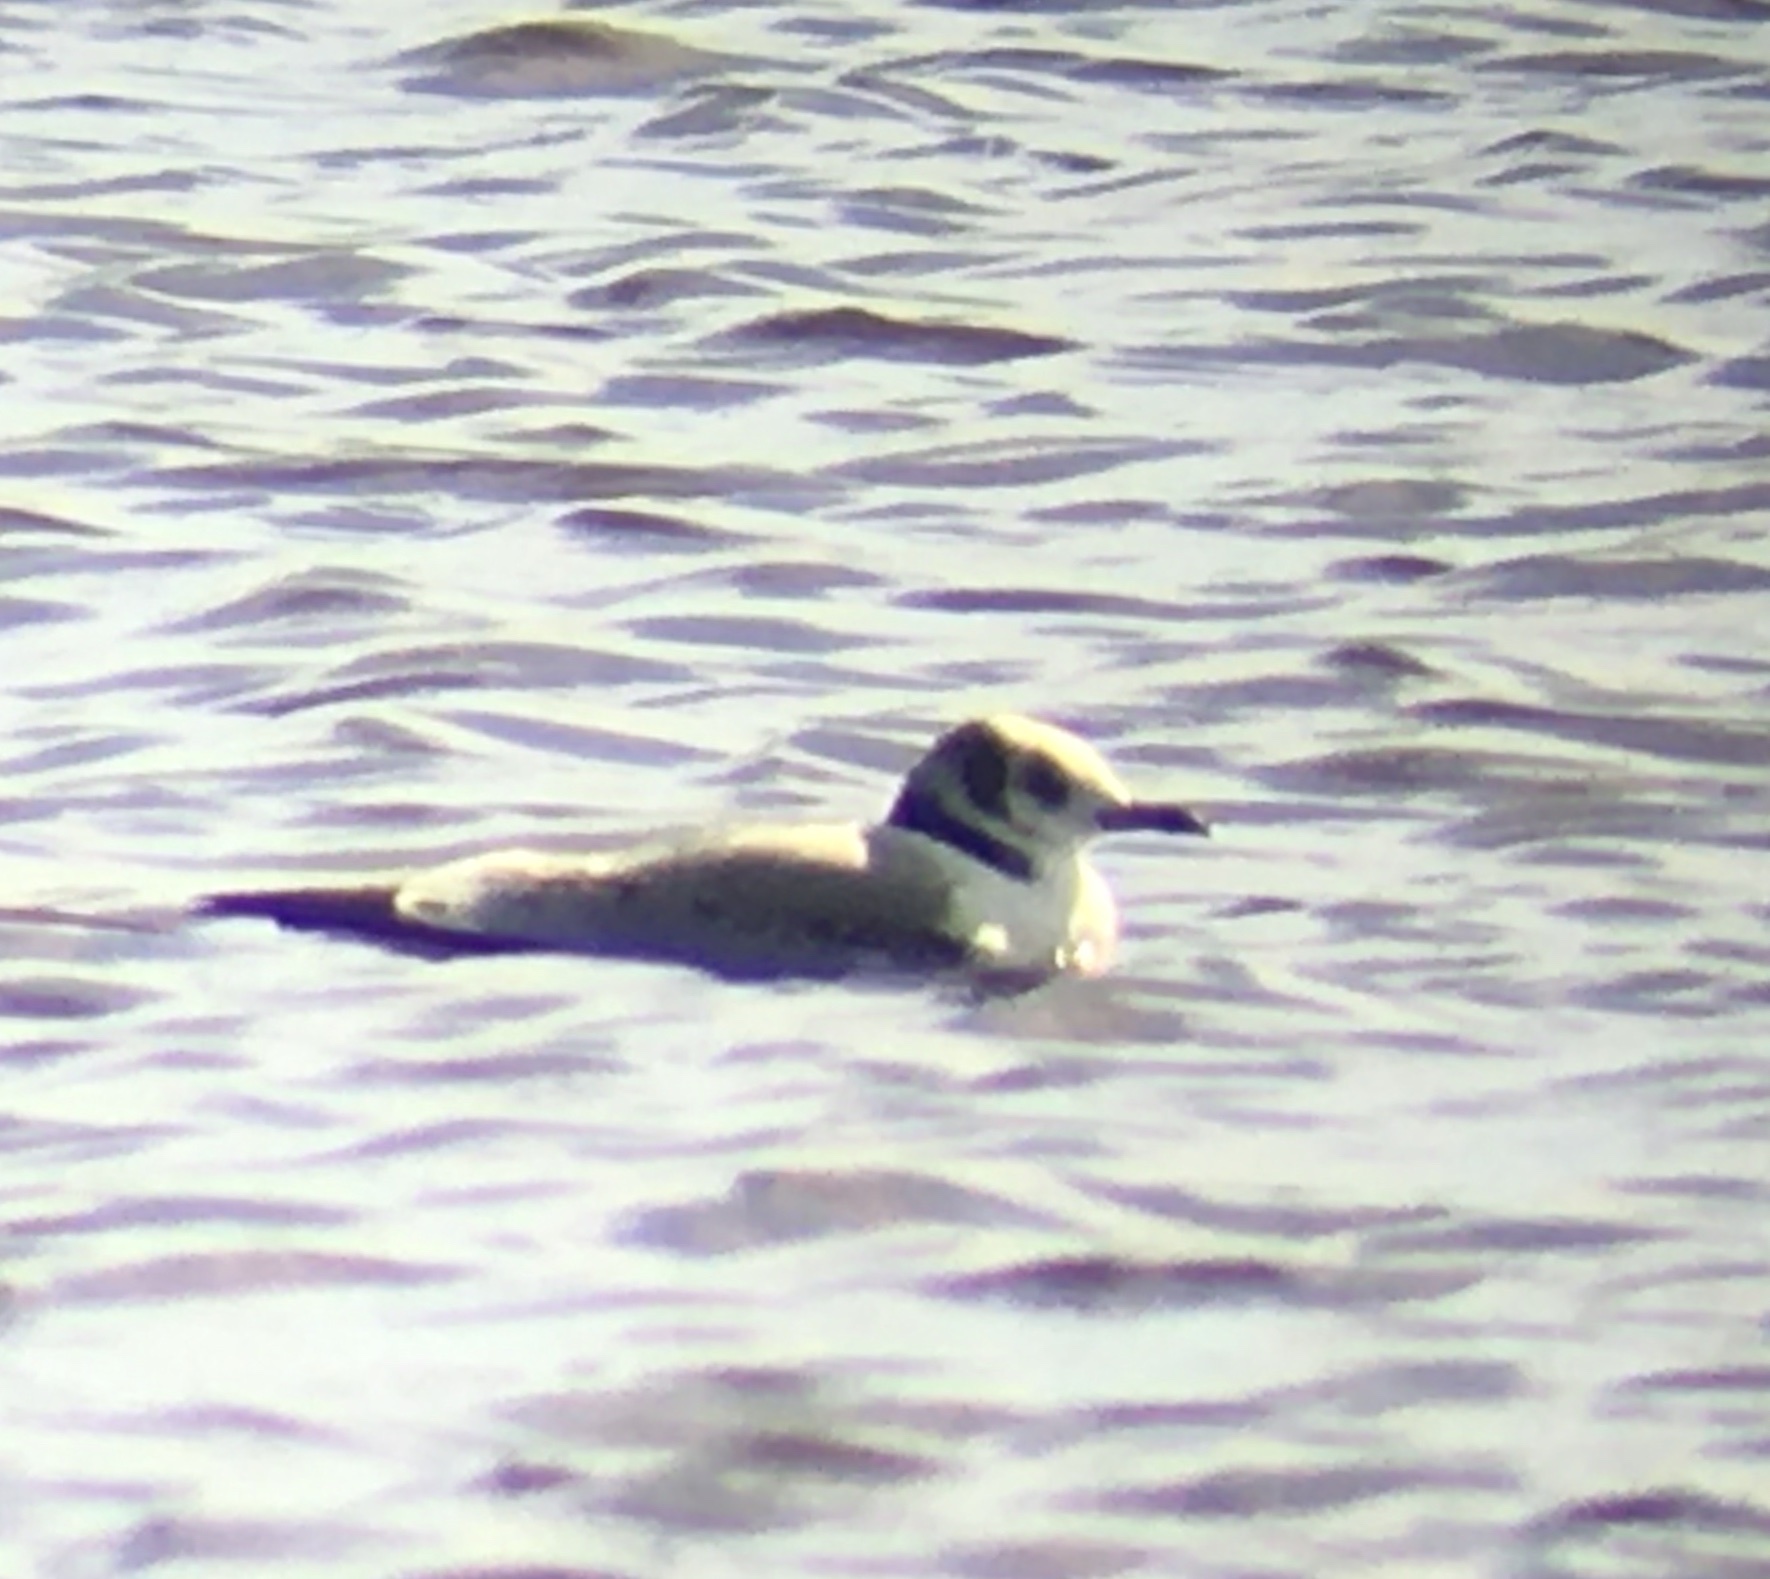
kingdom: Animalia
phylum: Chordata
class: Aves
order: Charadriiformes
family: Laridae
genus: Rissa
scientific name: Rissa tridactyla
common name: Black-legged kittiwake
